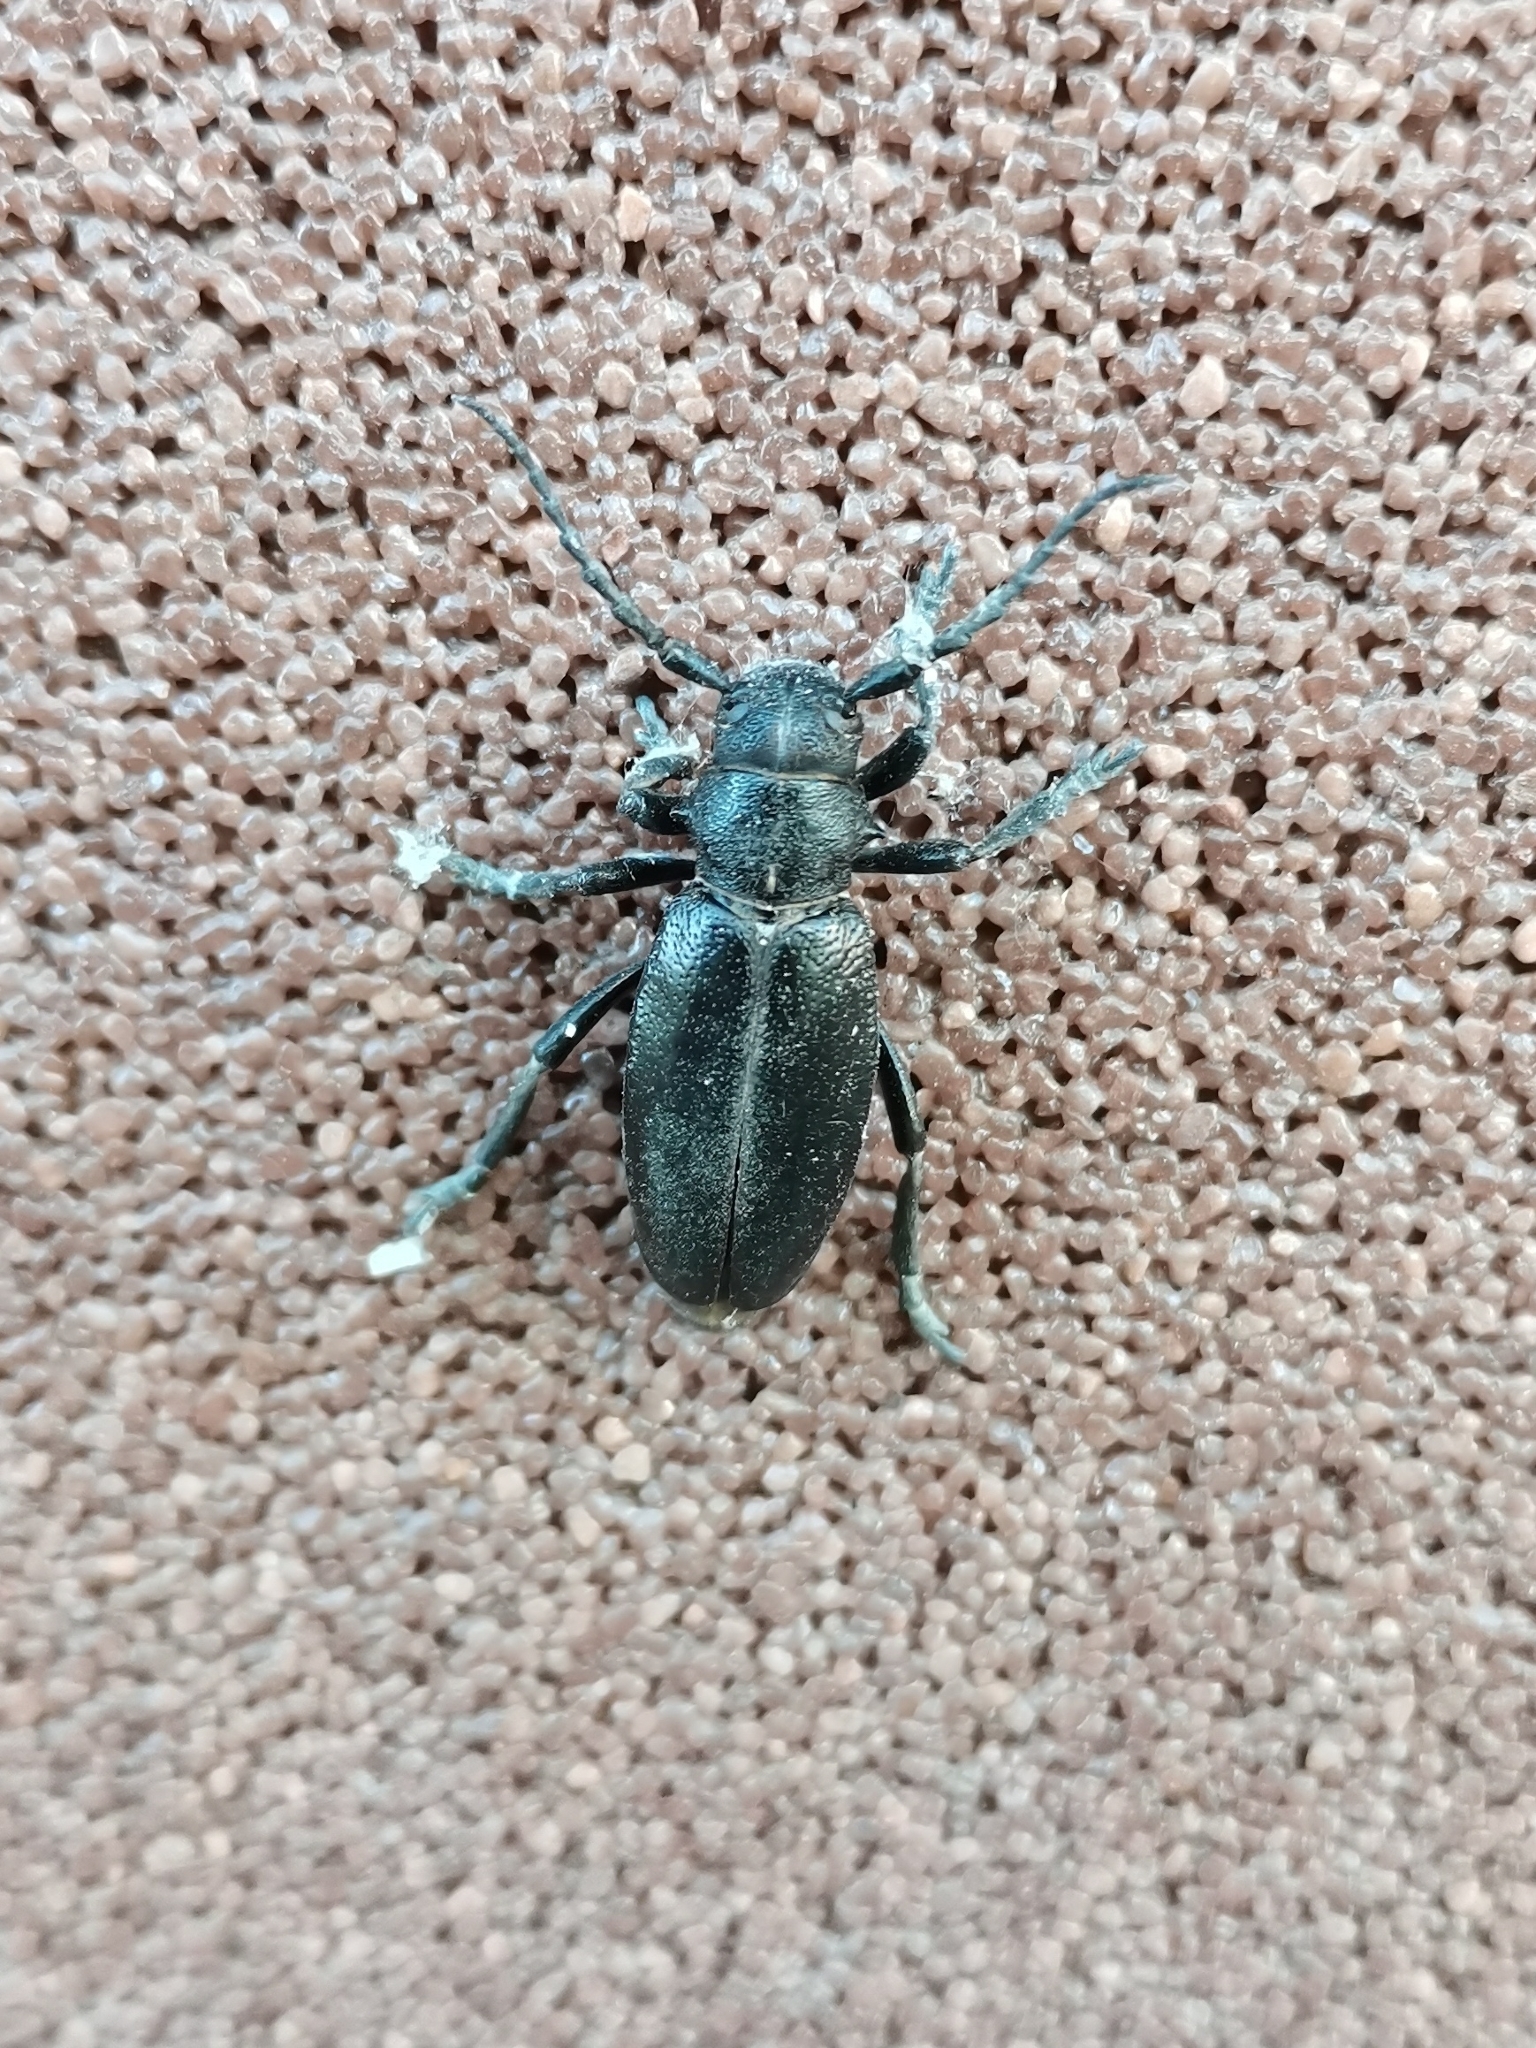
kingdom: Animalia
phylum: Arthropoda
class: Insecta
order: Coleoptera
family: Cerambycidae
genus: Dorcadion
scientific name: Dorcadion aethiops
